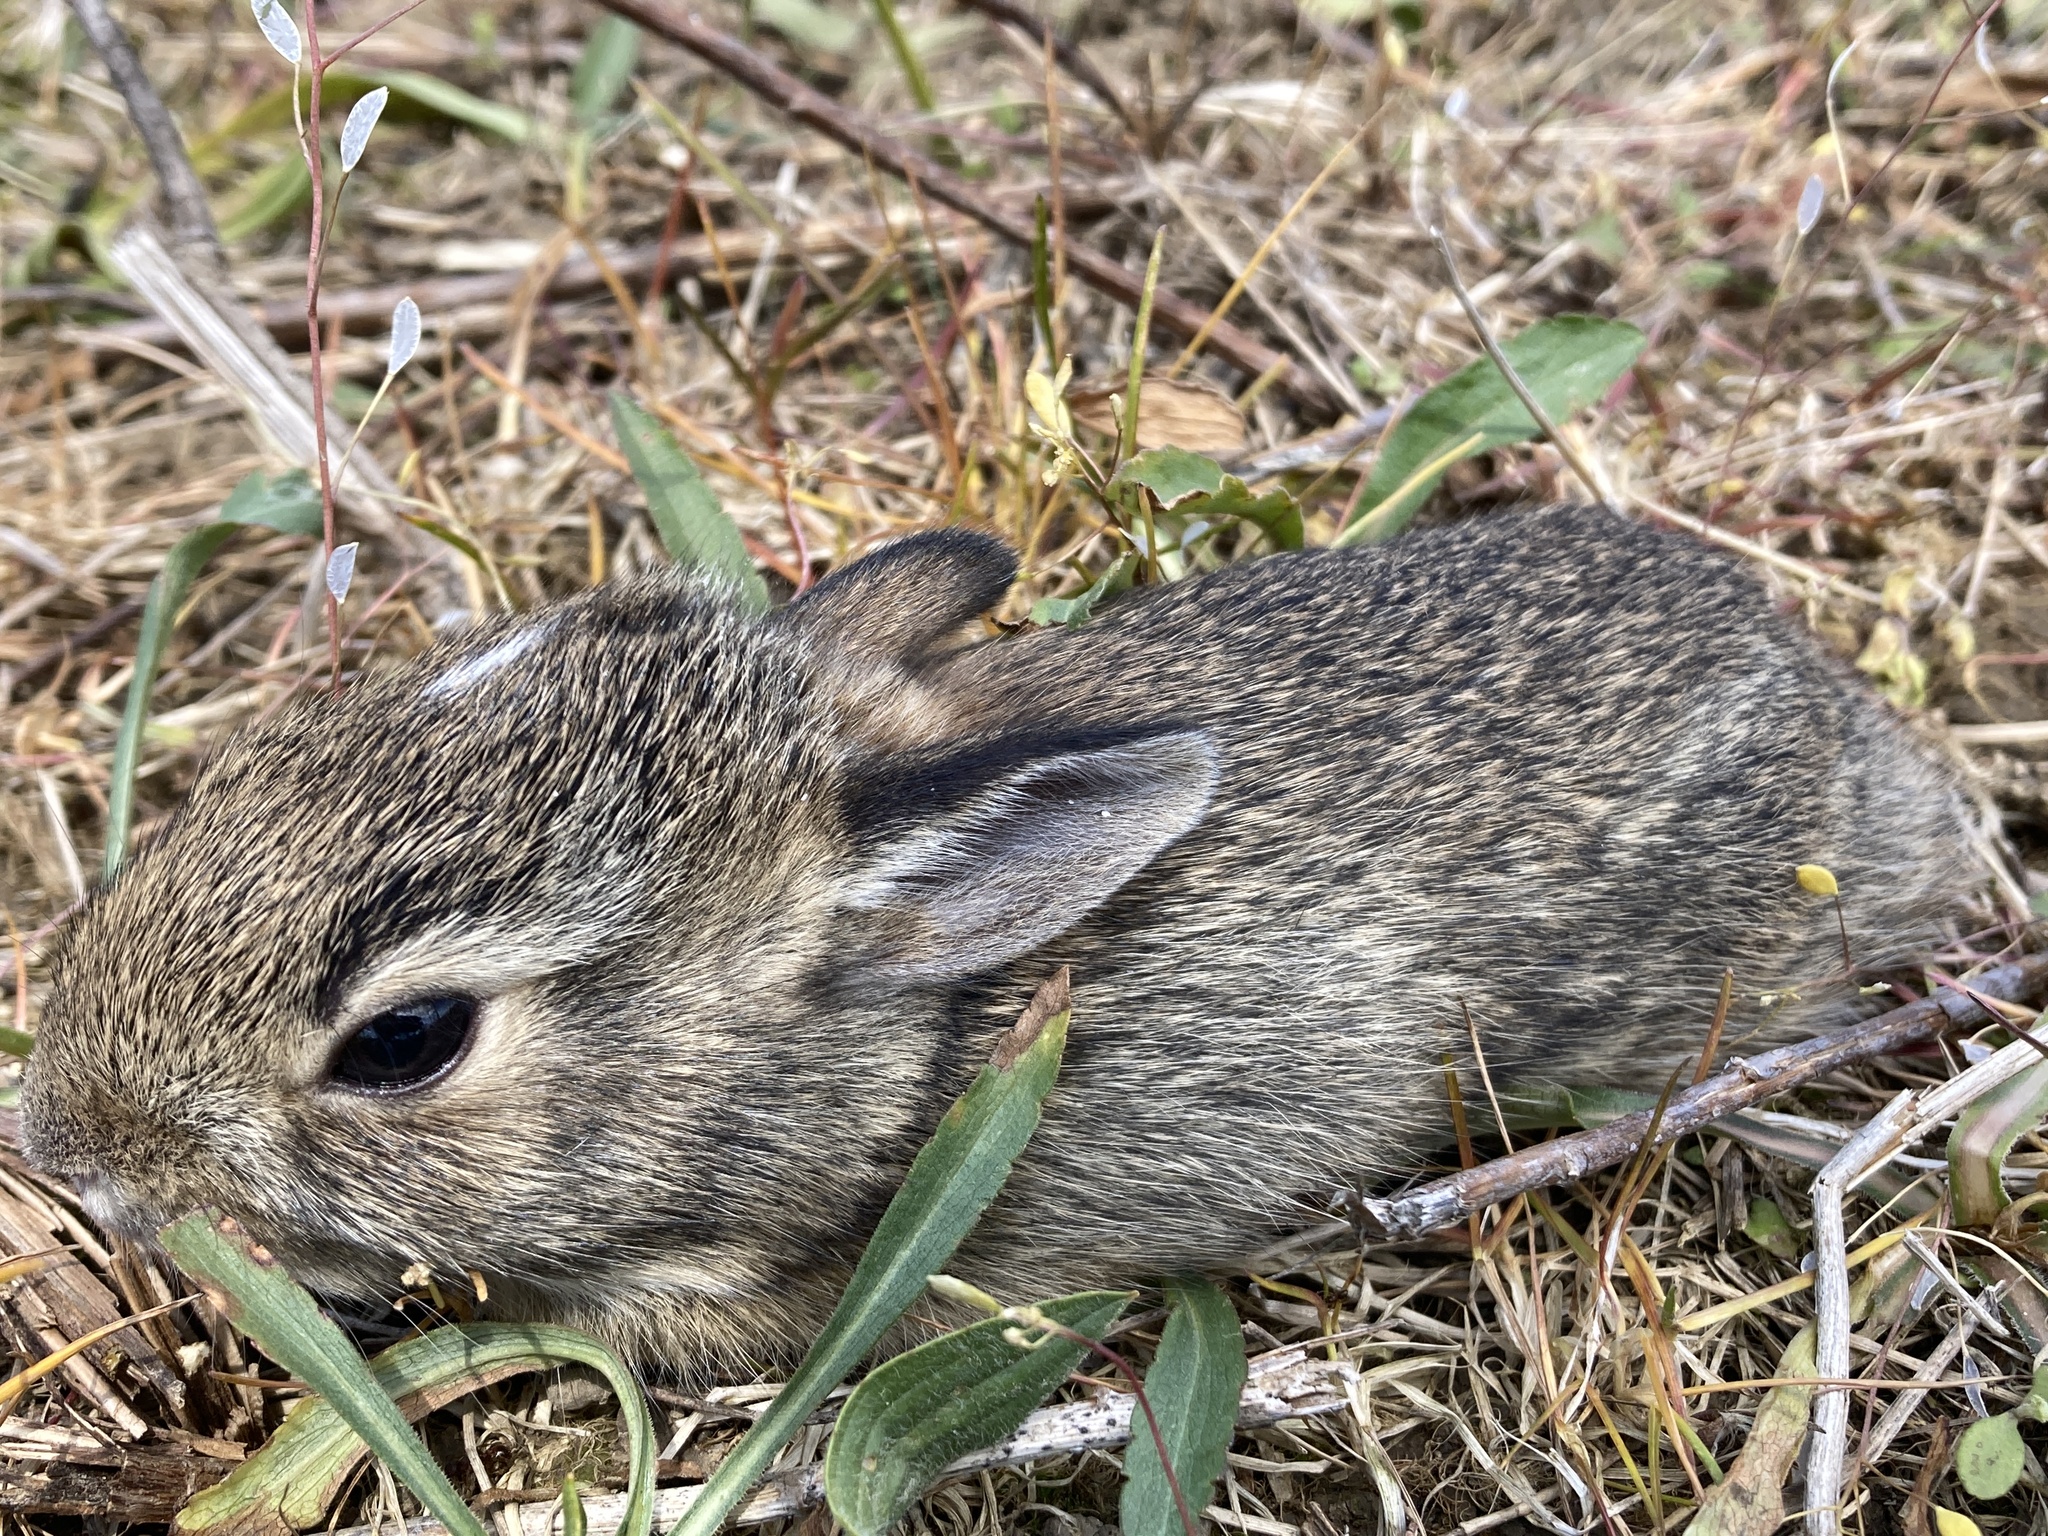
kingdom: Animalia
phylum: Chordata
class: Mammalia
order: Lagomorpha
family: Leporidae
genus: Sylvilagus
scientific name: Sylvilagus floridanus
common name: Eastern cottontail
